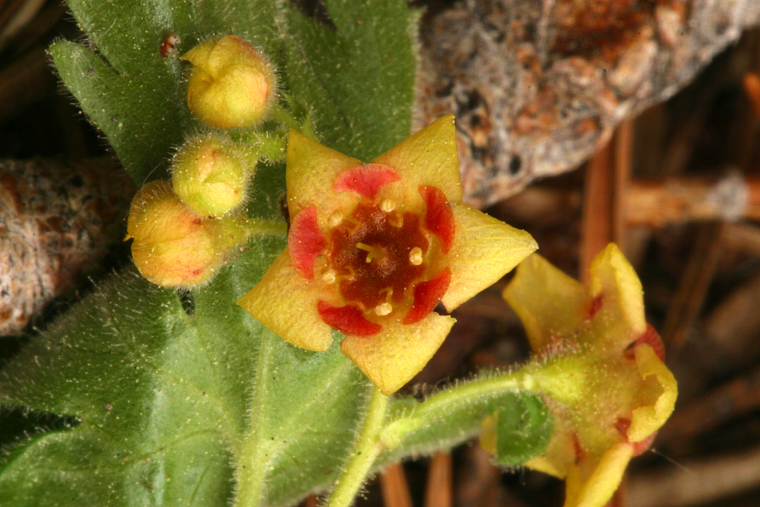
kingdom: Plantae
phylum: Tracheophyta
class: Magnoliopsida
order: Saxifragales
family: Grossulariaceae
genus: Ribes
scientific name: Ribes montigenum
